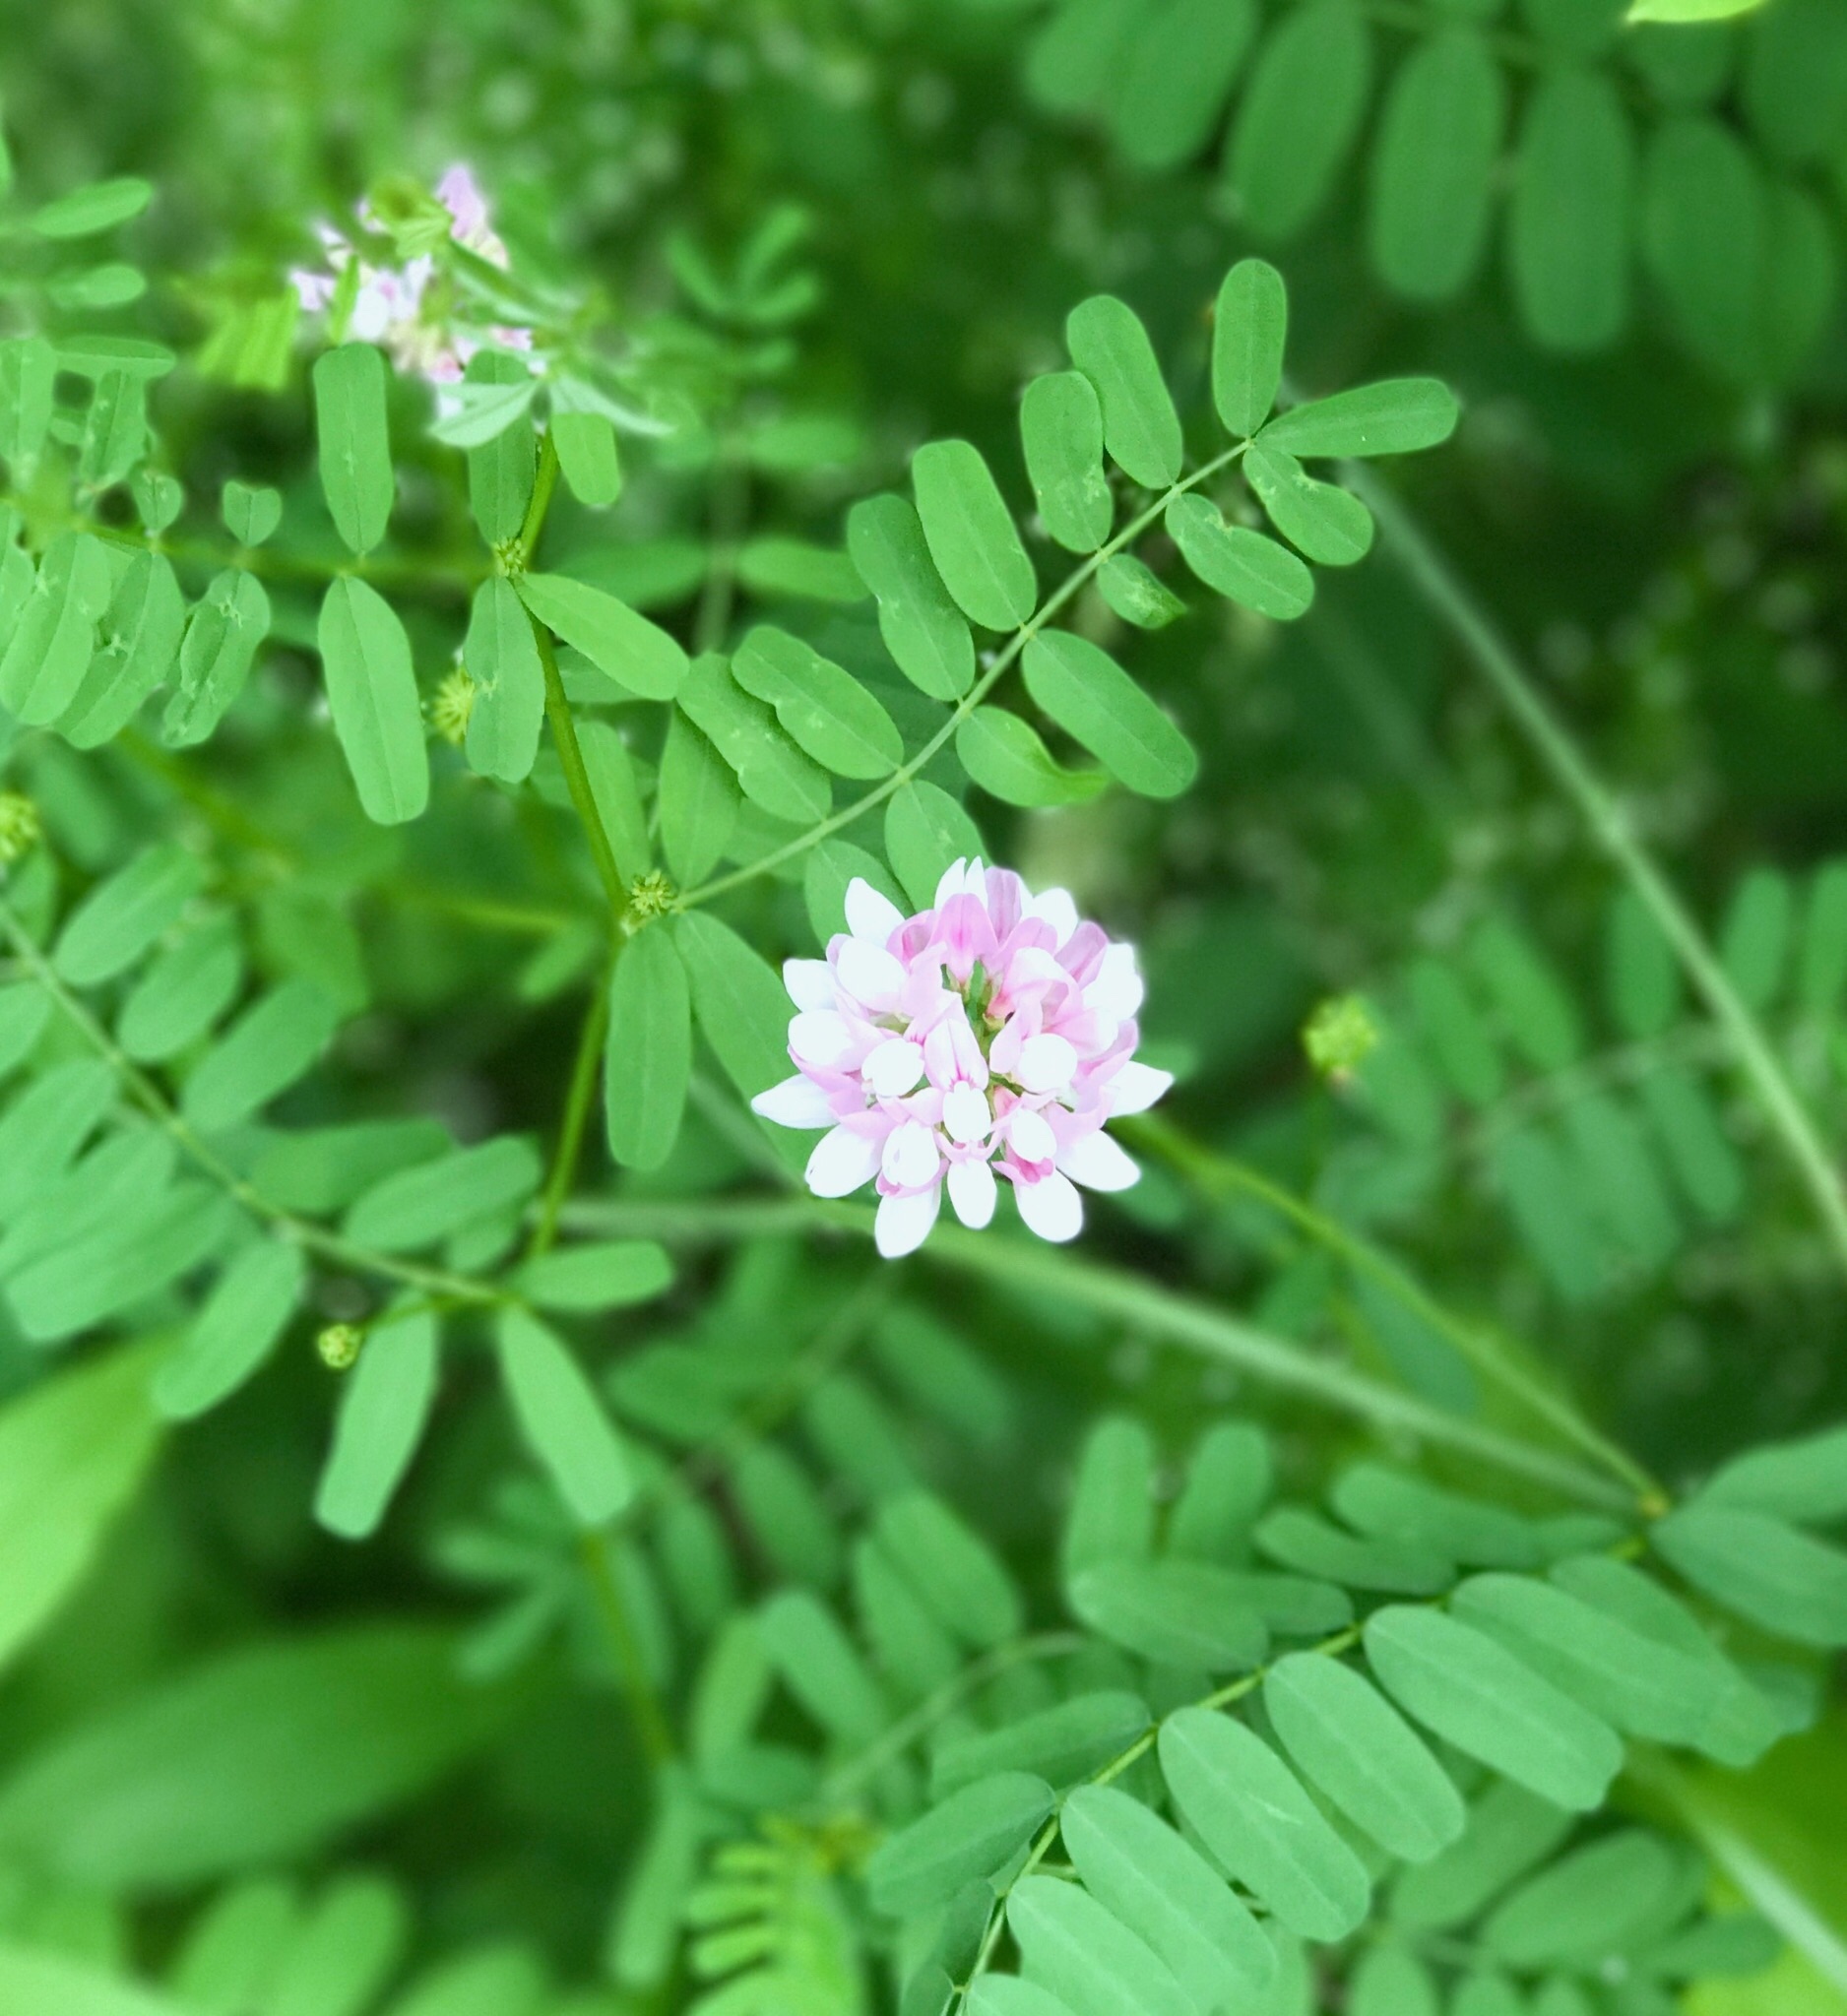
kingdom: Plantae
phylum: Tracheophyta
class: Magnoliopsida
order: Fabales
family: Fabaceae
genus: Coronilla
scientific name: Coronilla varia
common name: Crownvetch
